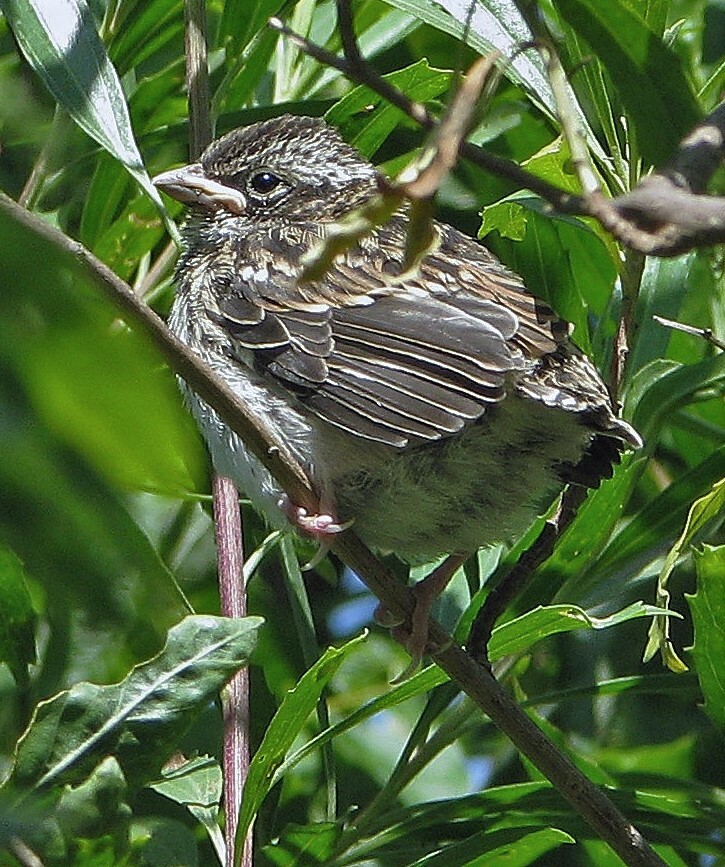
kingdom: Animalia
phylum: Chordata
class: Aves
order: Passeriformes
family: Passerellidae
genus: Zonotrichia
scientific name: Zonotrichia capensis
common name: Rufous-collared sparrow
